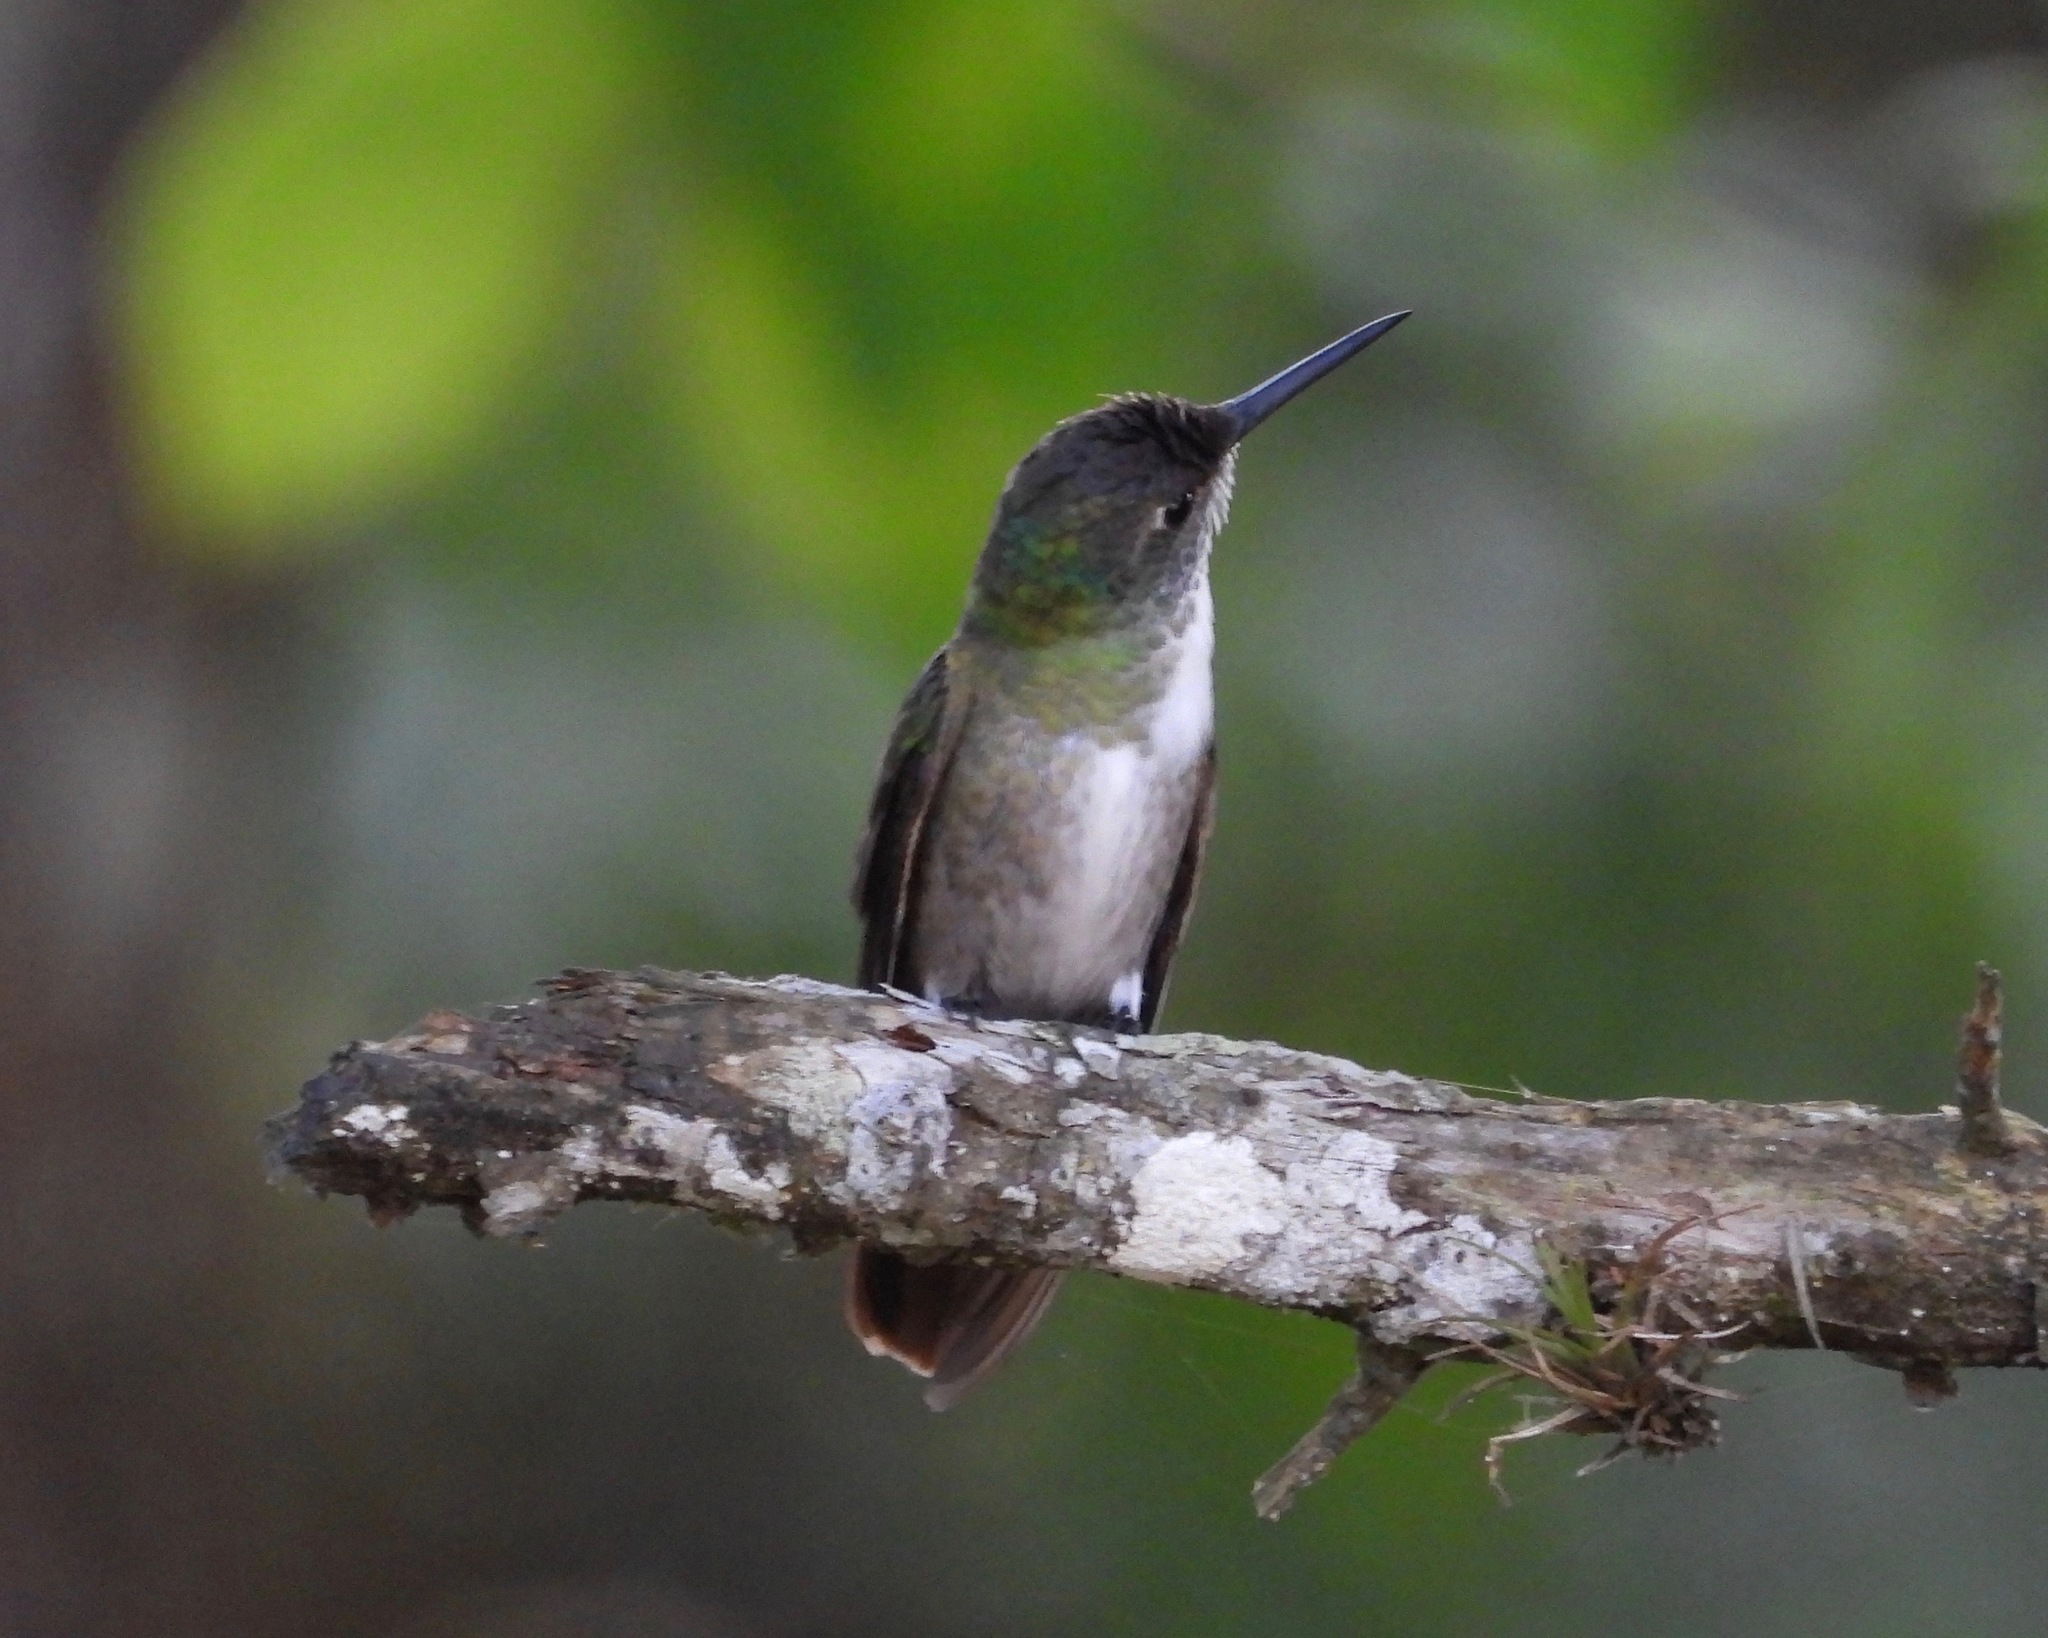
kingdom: Animalia
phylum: Chordata
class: Aves
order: Apodiformes
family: Trochilidae
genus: Saucerottia
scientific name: Saucerottia cyanocephala
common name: Azure-crowned hummingbird
